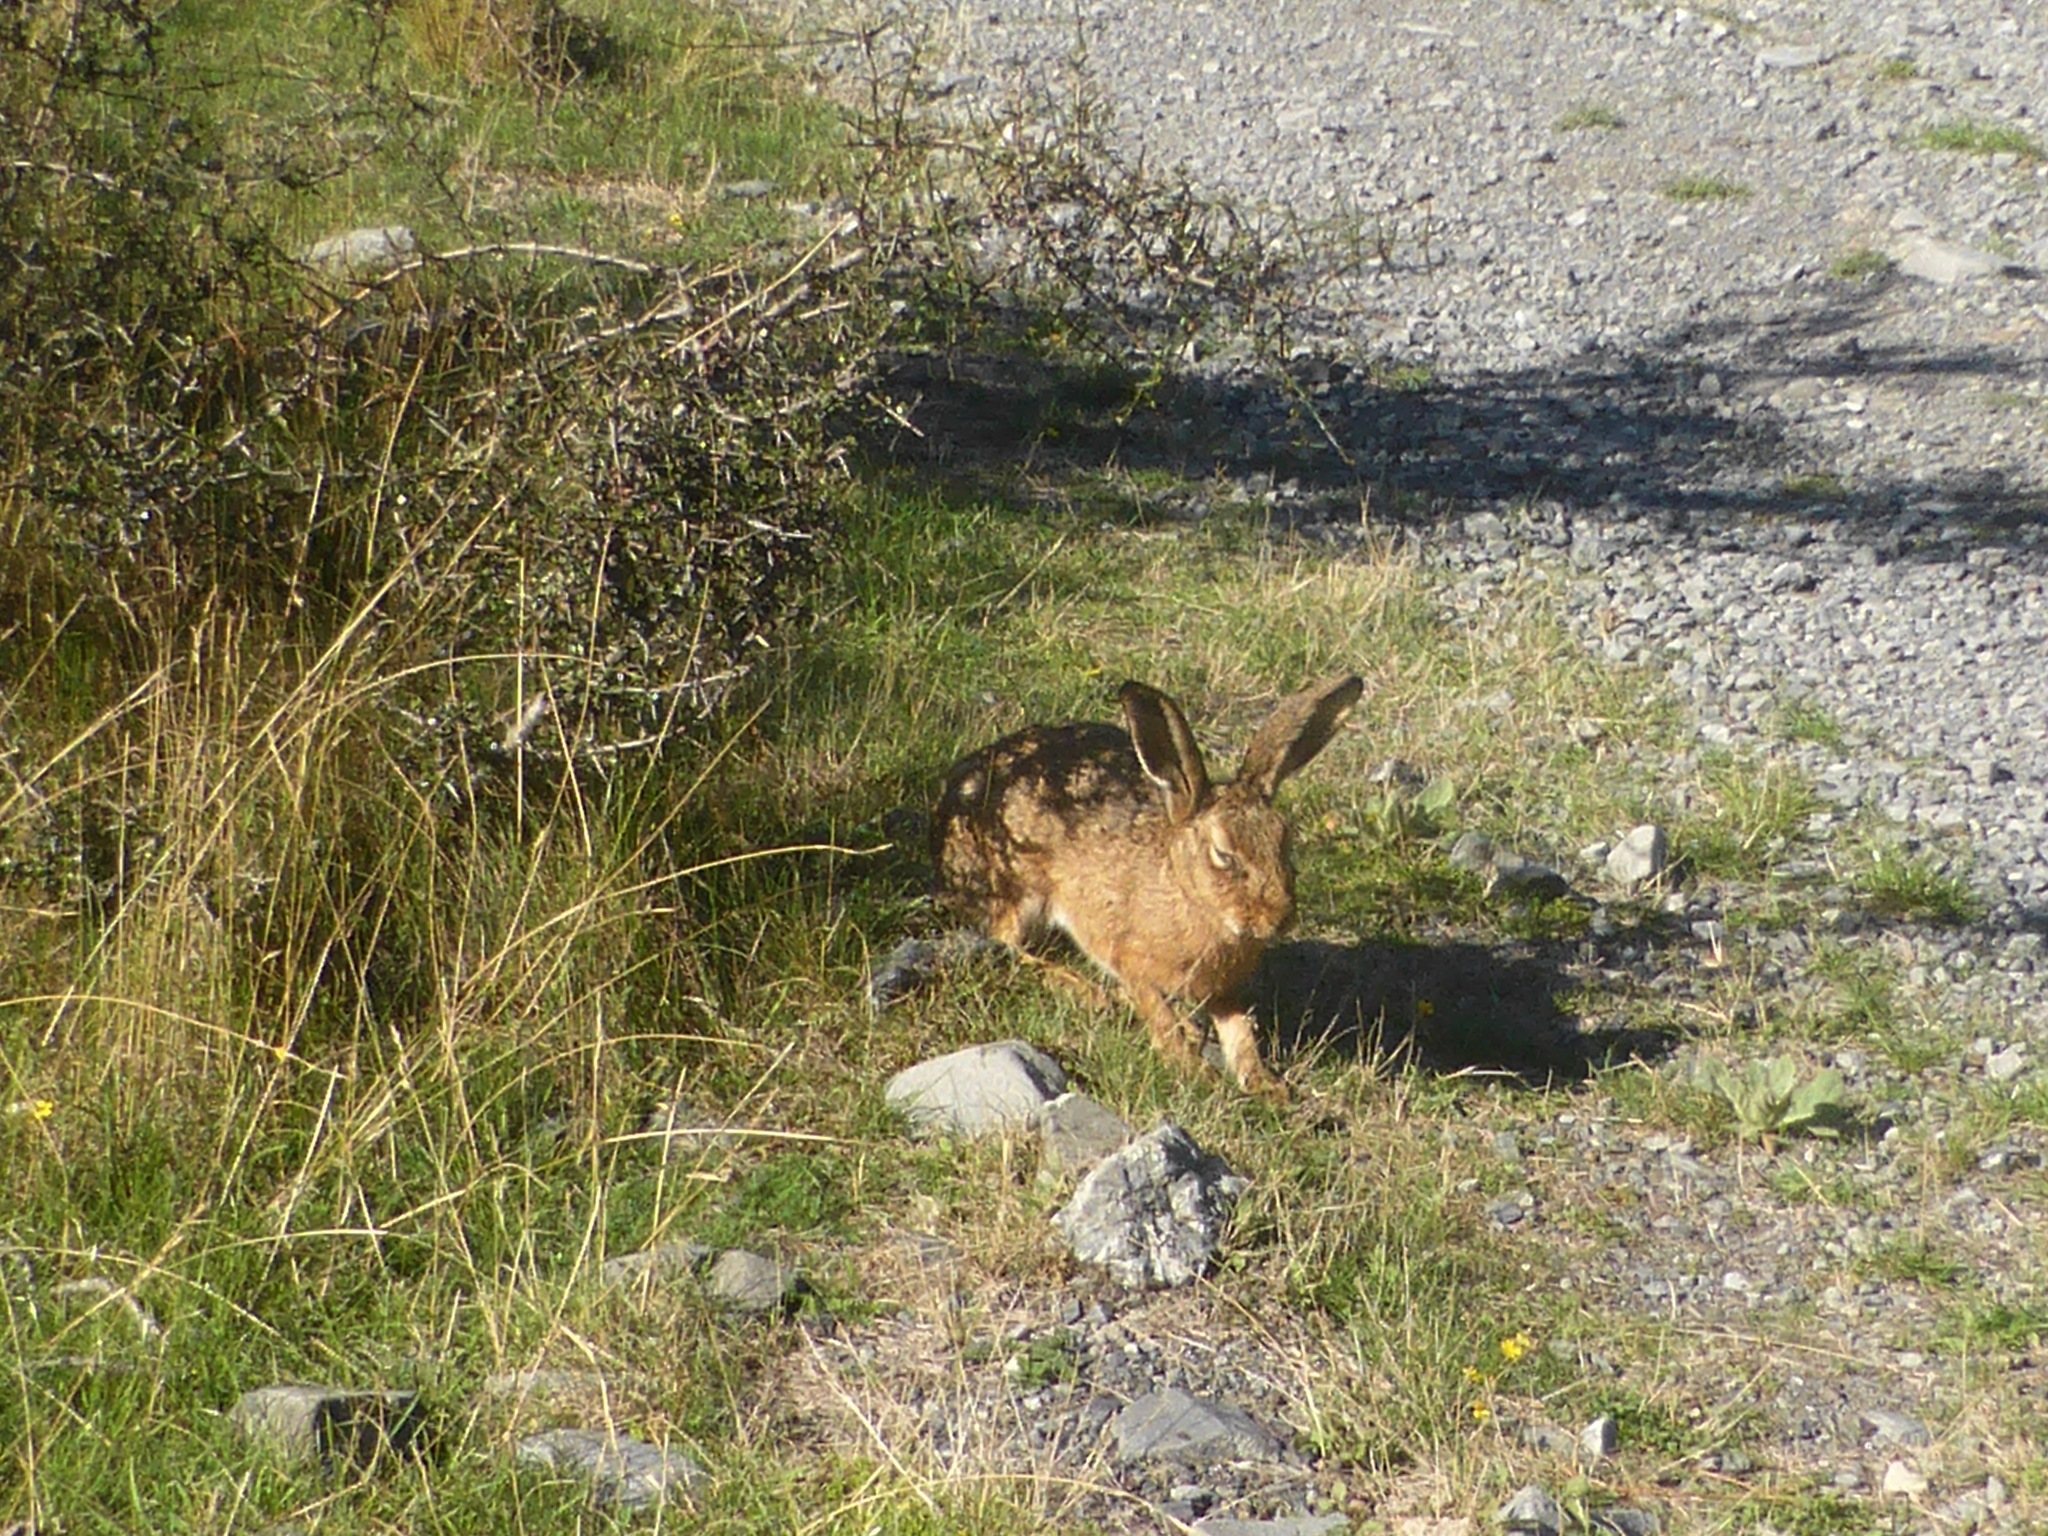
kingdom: Animalia
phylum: Chordata
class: Mammalia
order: Lagomorpha
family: Leporidae
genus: Lepus
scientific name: Lepus europaeus
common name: European hare
